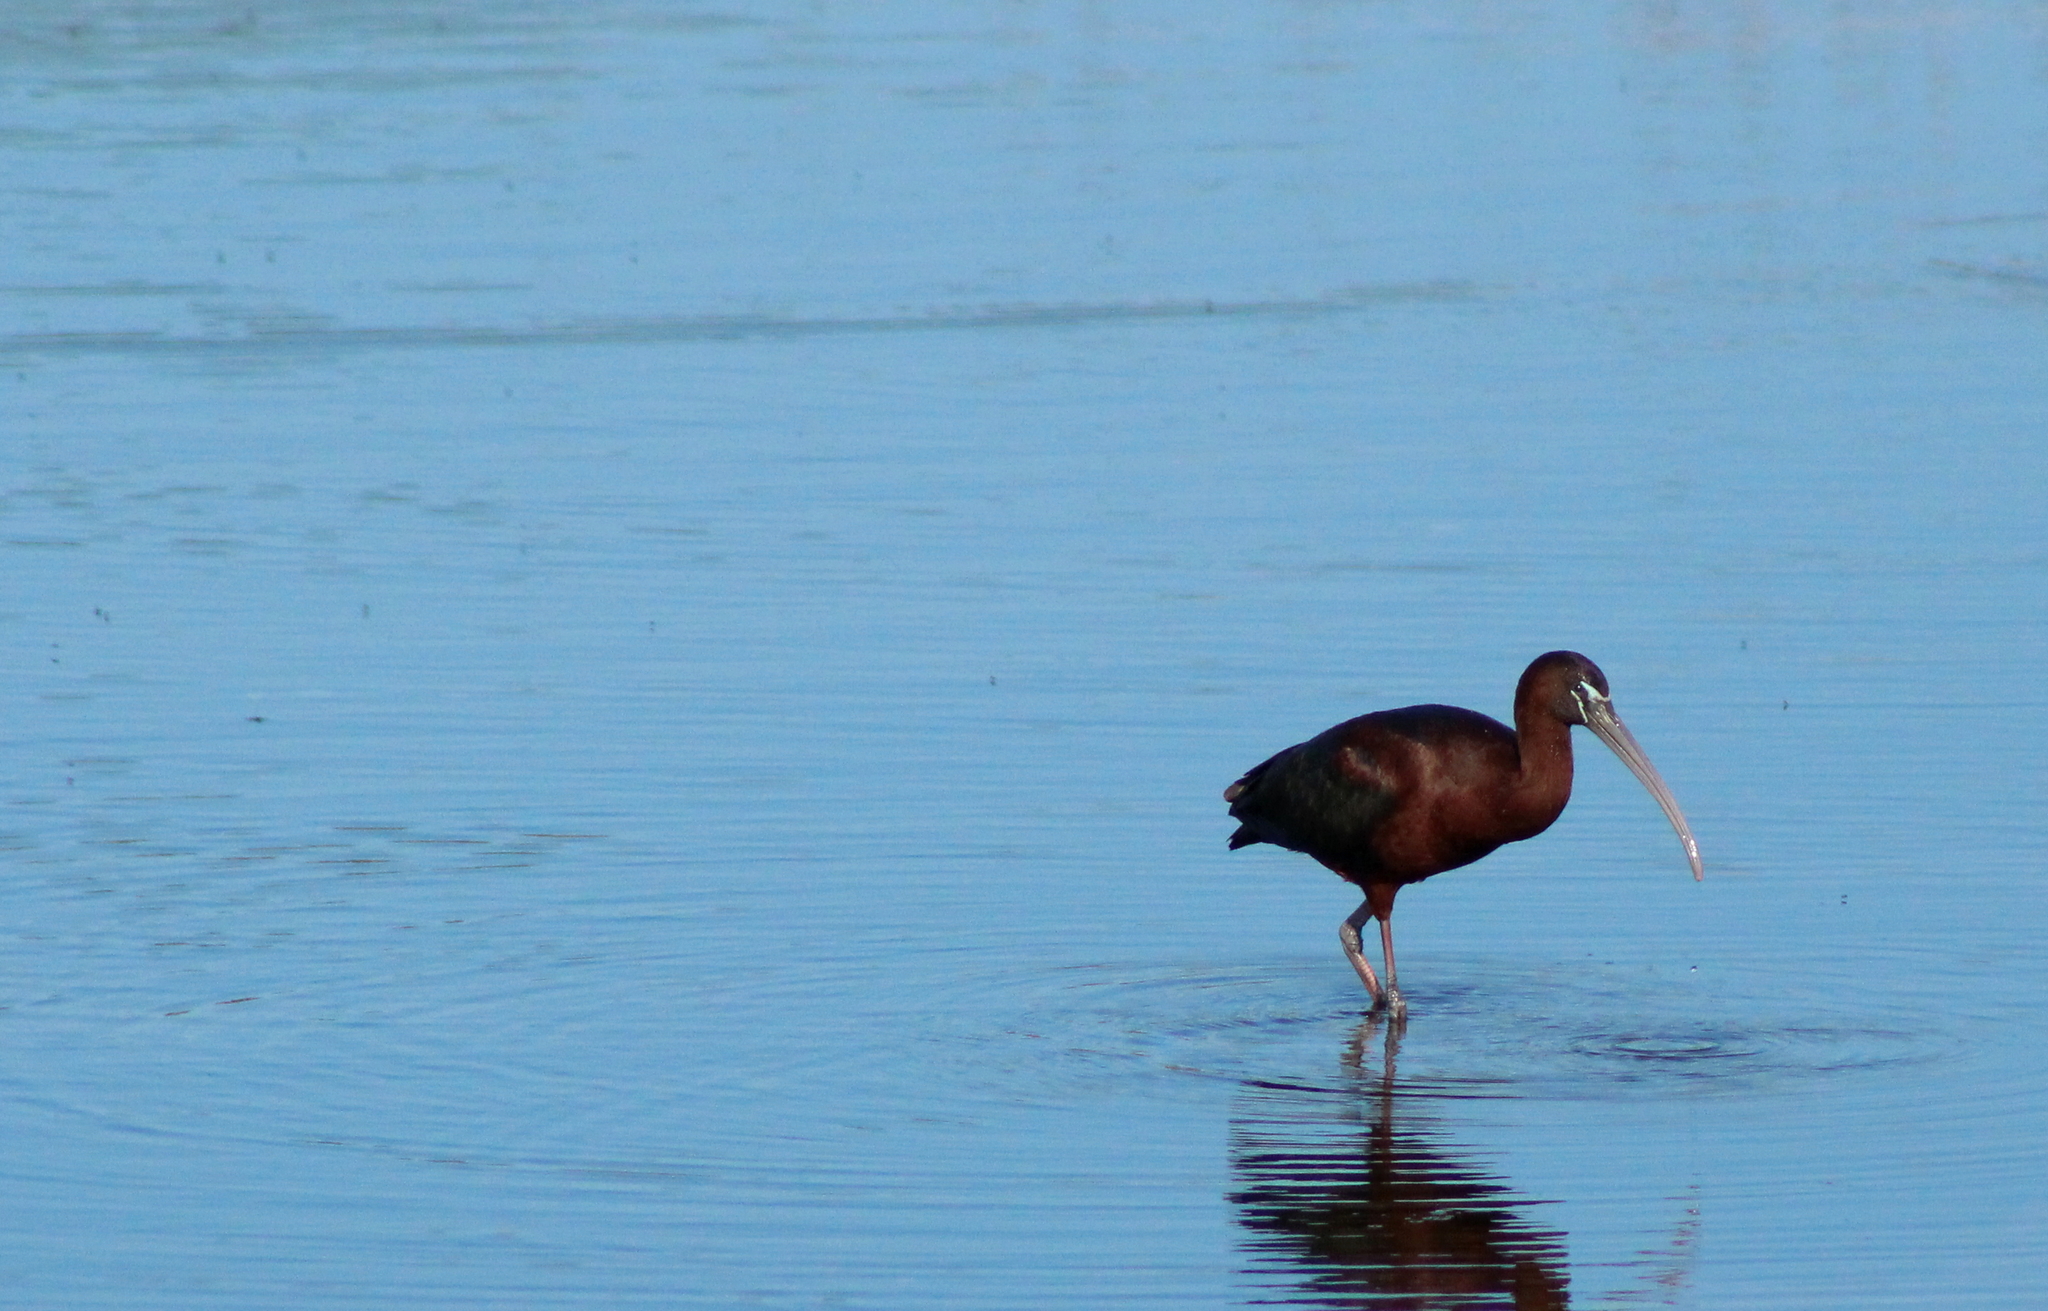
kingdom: Animalia
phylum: Chordata
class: Aves
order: Pelecaniformes
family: Threskiornithidae
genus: Plegadis
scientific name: Plegadis falcinellus
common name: Glossy ibis
